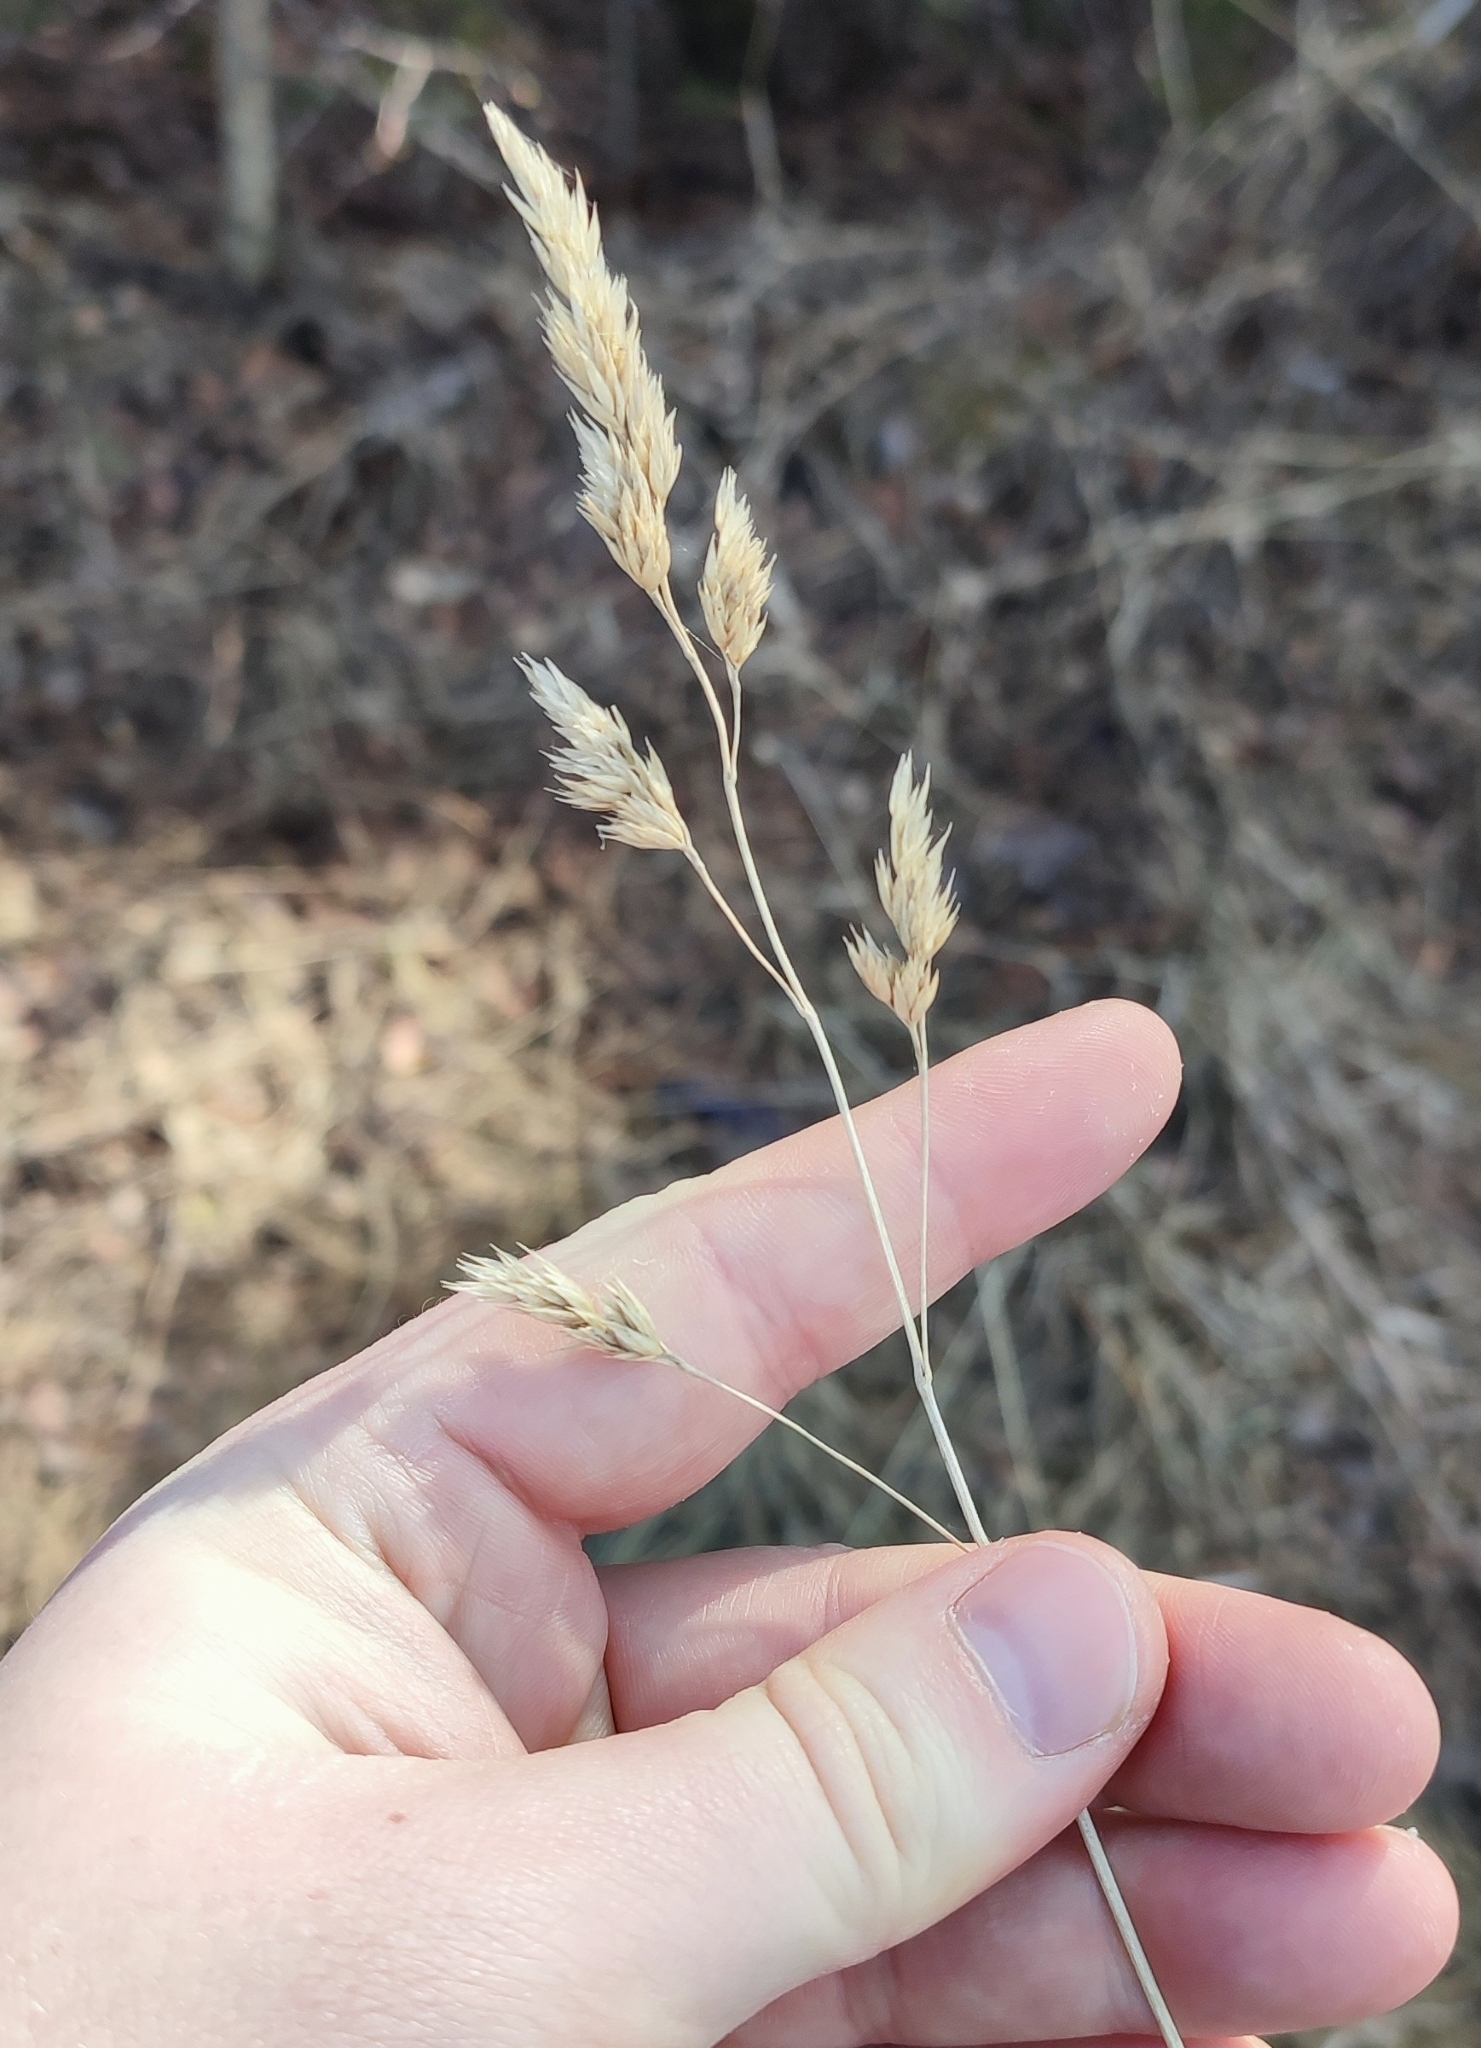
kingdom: Plantae
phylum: Tracheophyta
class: Liliopsida
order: Poales
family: Poaceae
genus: Dactylis
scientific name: Dactylis glomerata
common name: Orchardgrass
